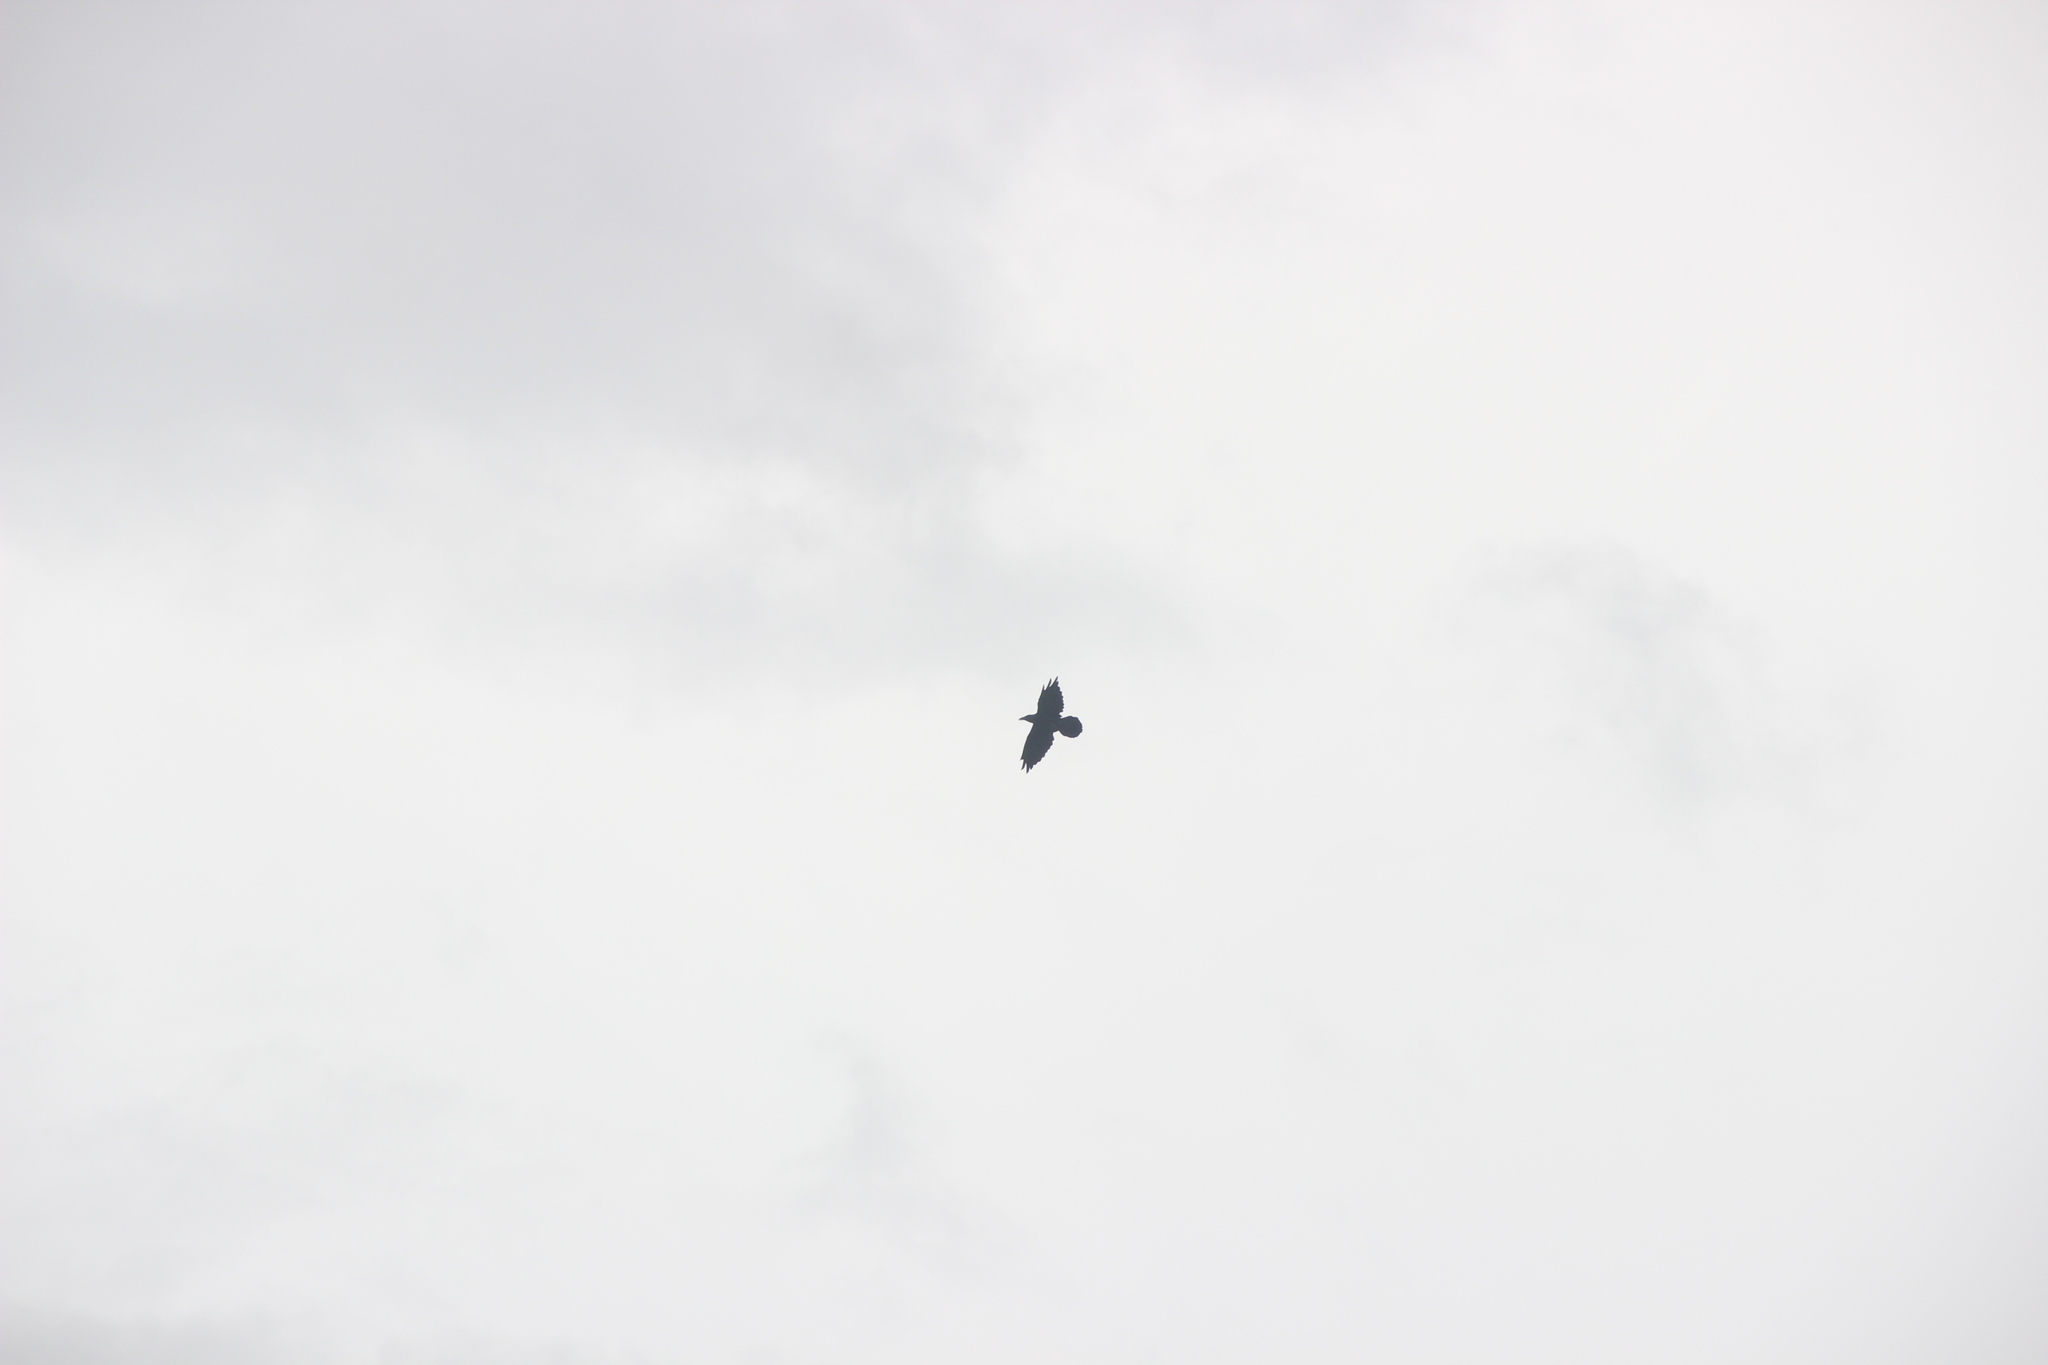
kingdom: Animalia
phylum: Chordata
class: Aves
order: Passeriformes
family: Corvidae
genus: Corvus
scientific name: Corvus corax
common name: Common raven
